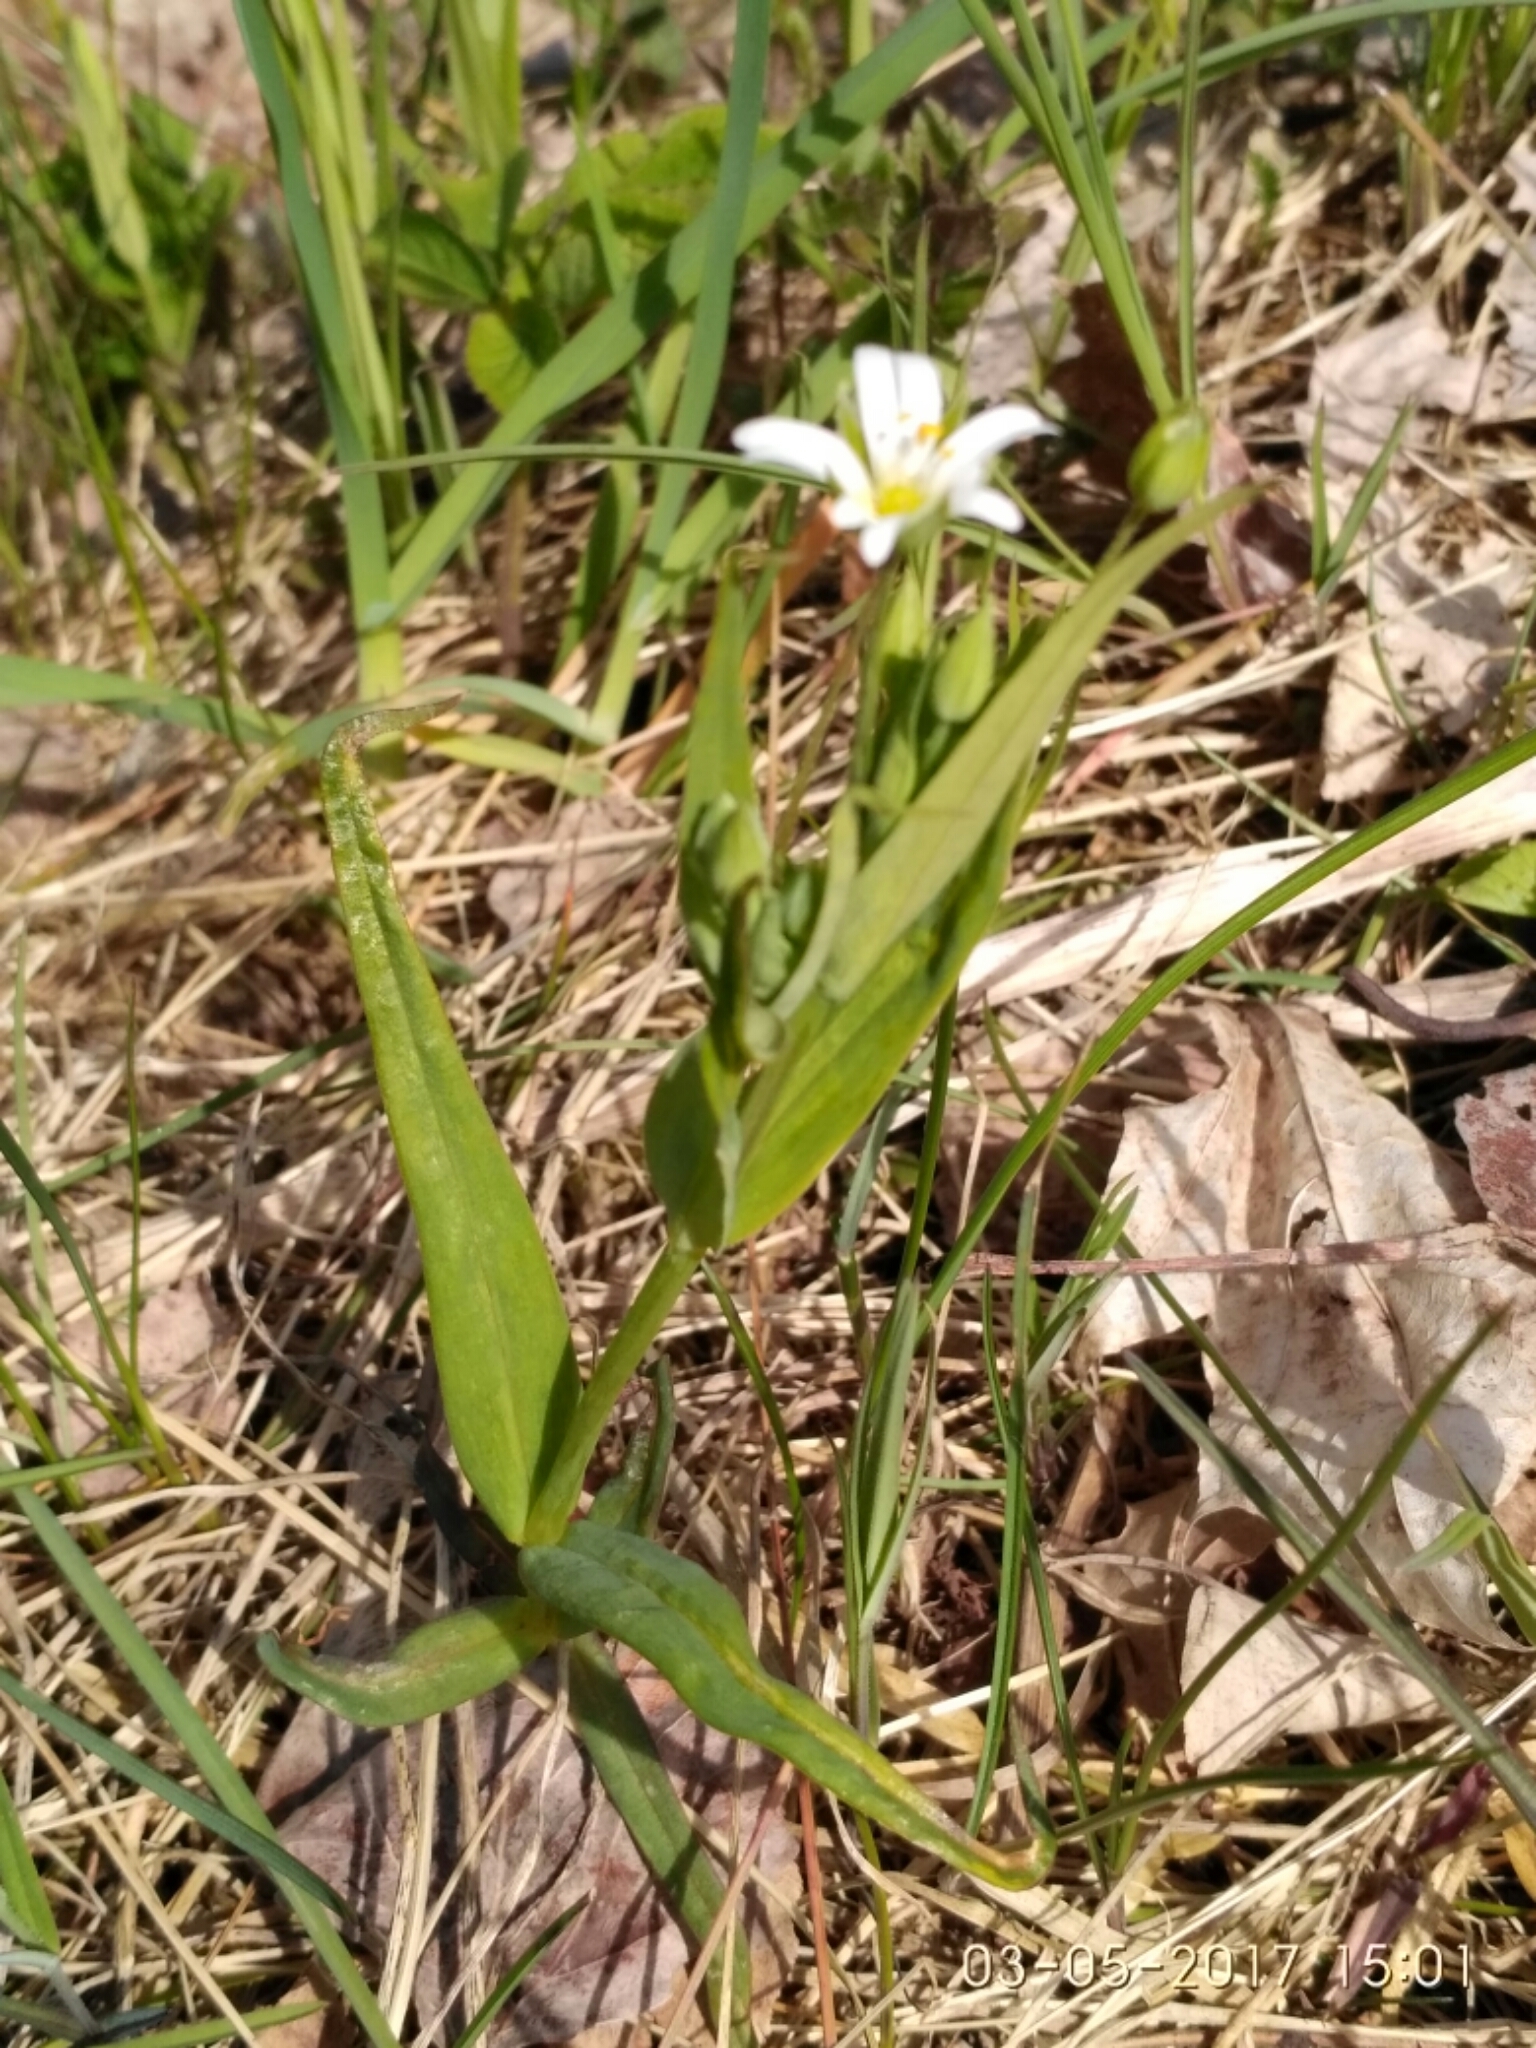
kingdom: Plantae
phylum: Tracheophyta
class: Magnoliopsida
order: Caryophyllales
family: Caryophyllaceae
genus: Rabelera
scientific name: Rabelera holostea
